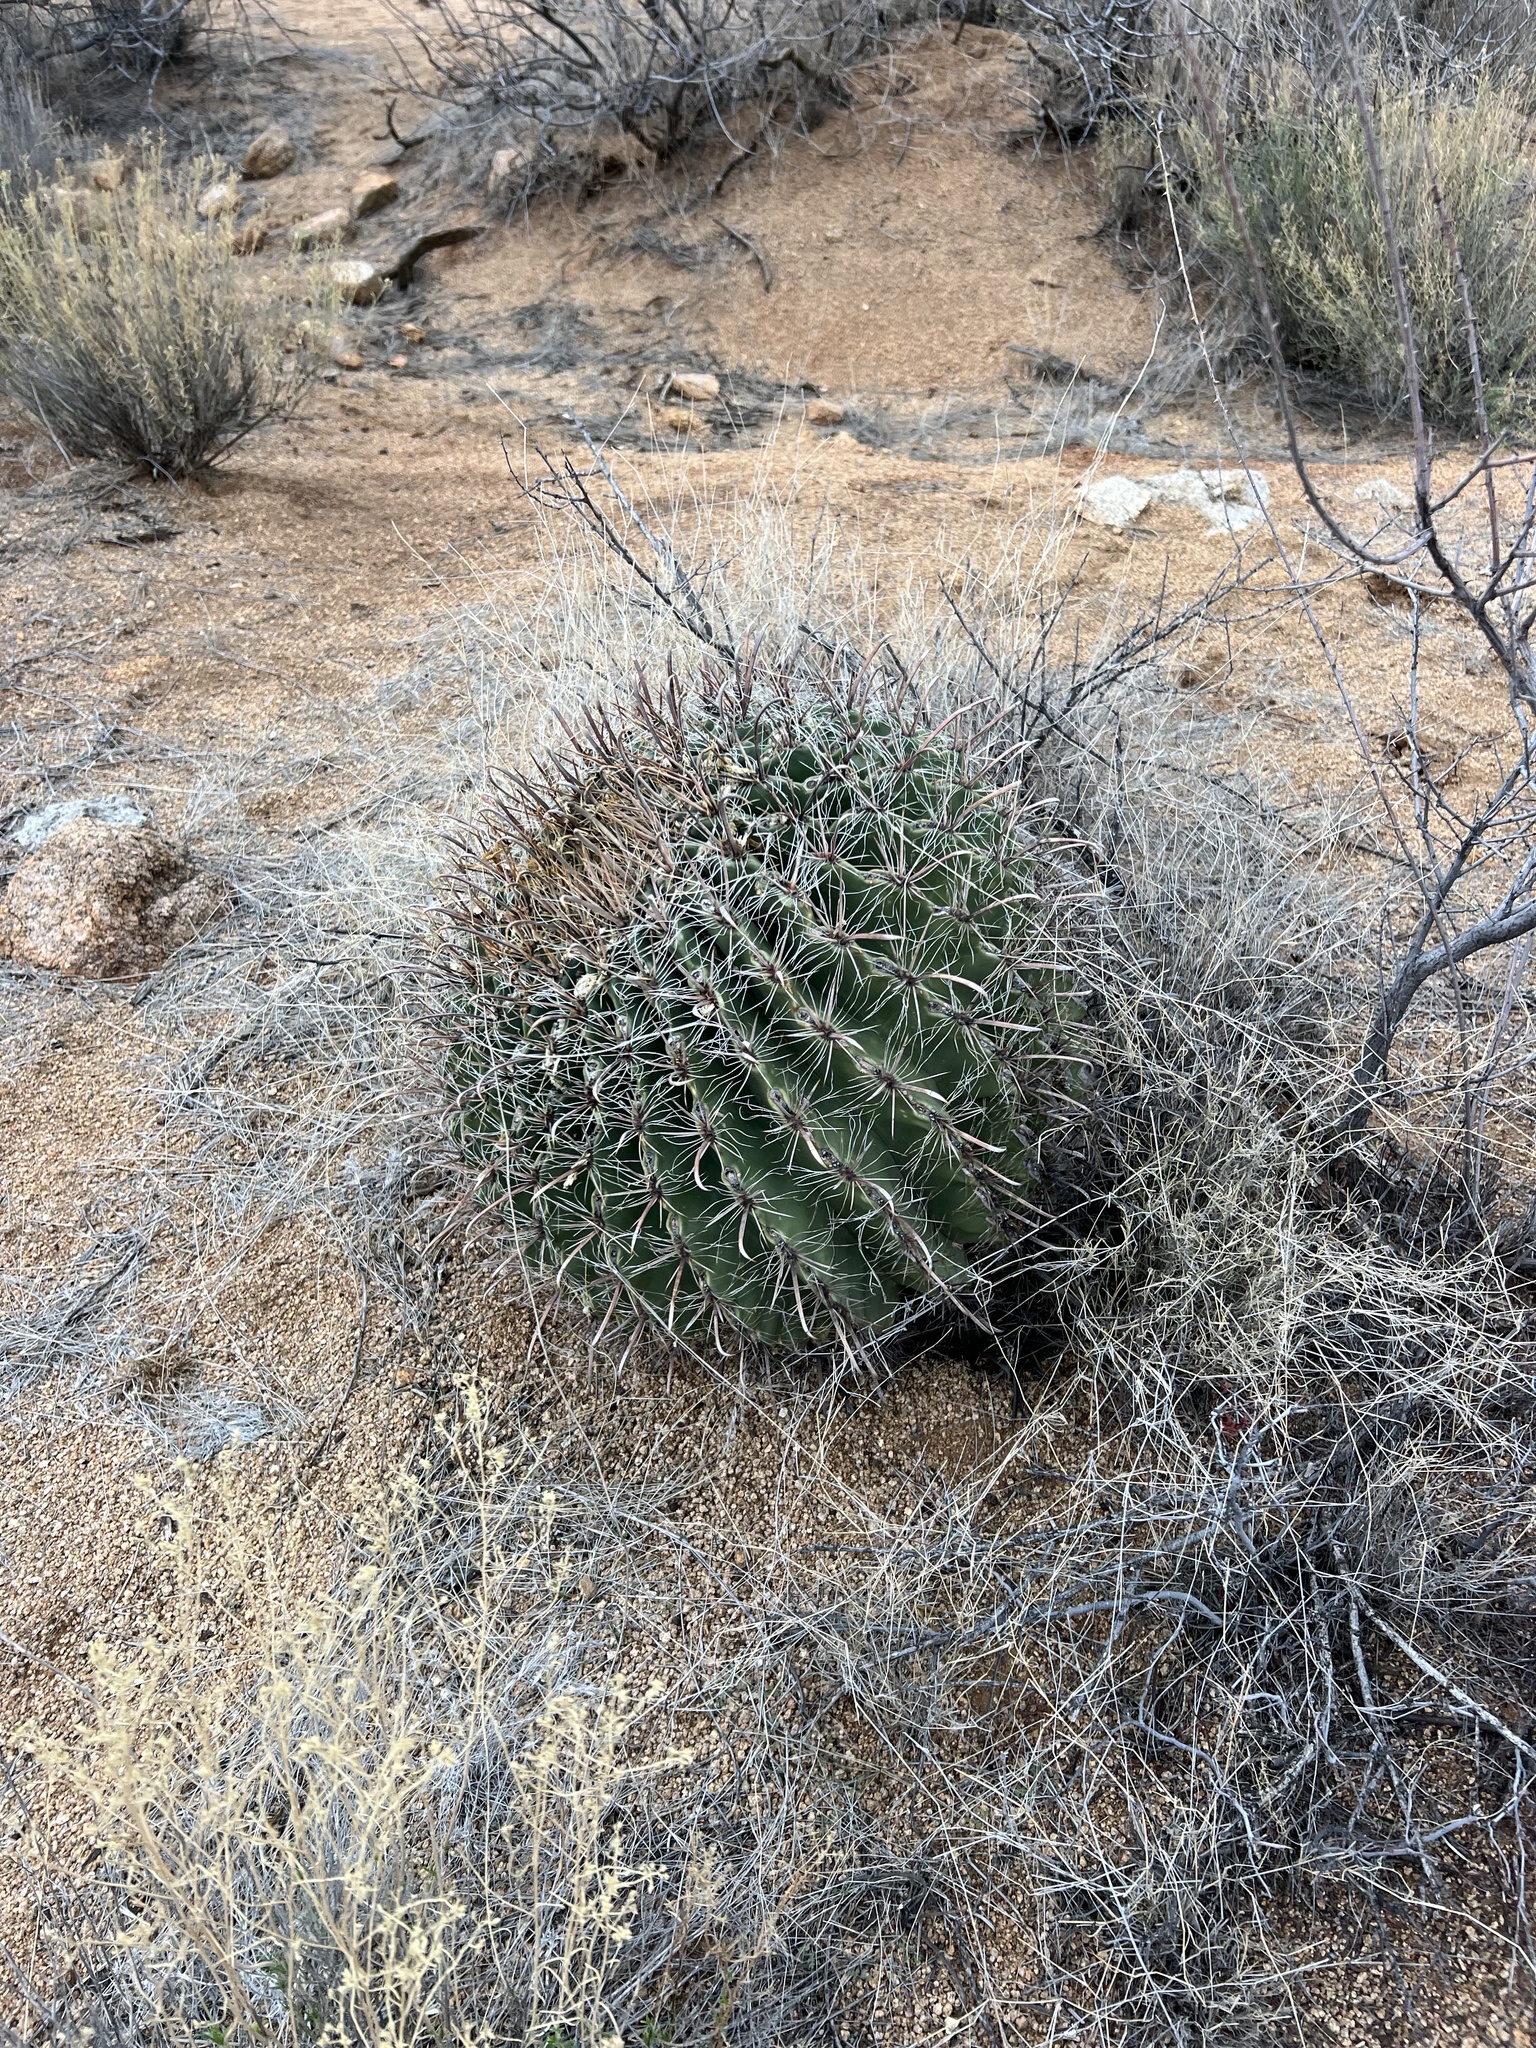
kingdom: Plantae
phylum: Tracheophyta
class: Magnoliopsida
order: Caryophyllales
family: Cactaceae
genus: Ferocactus
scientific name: Ferocactus wislizeni
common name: Candy barrel cactus
